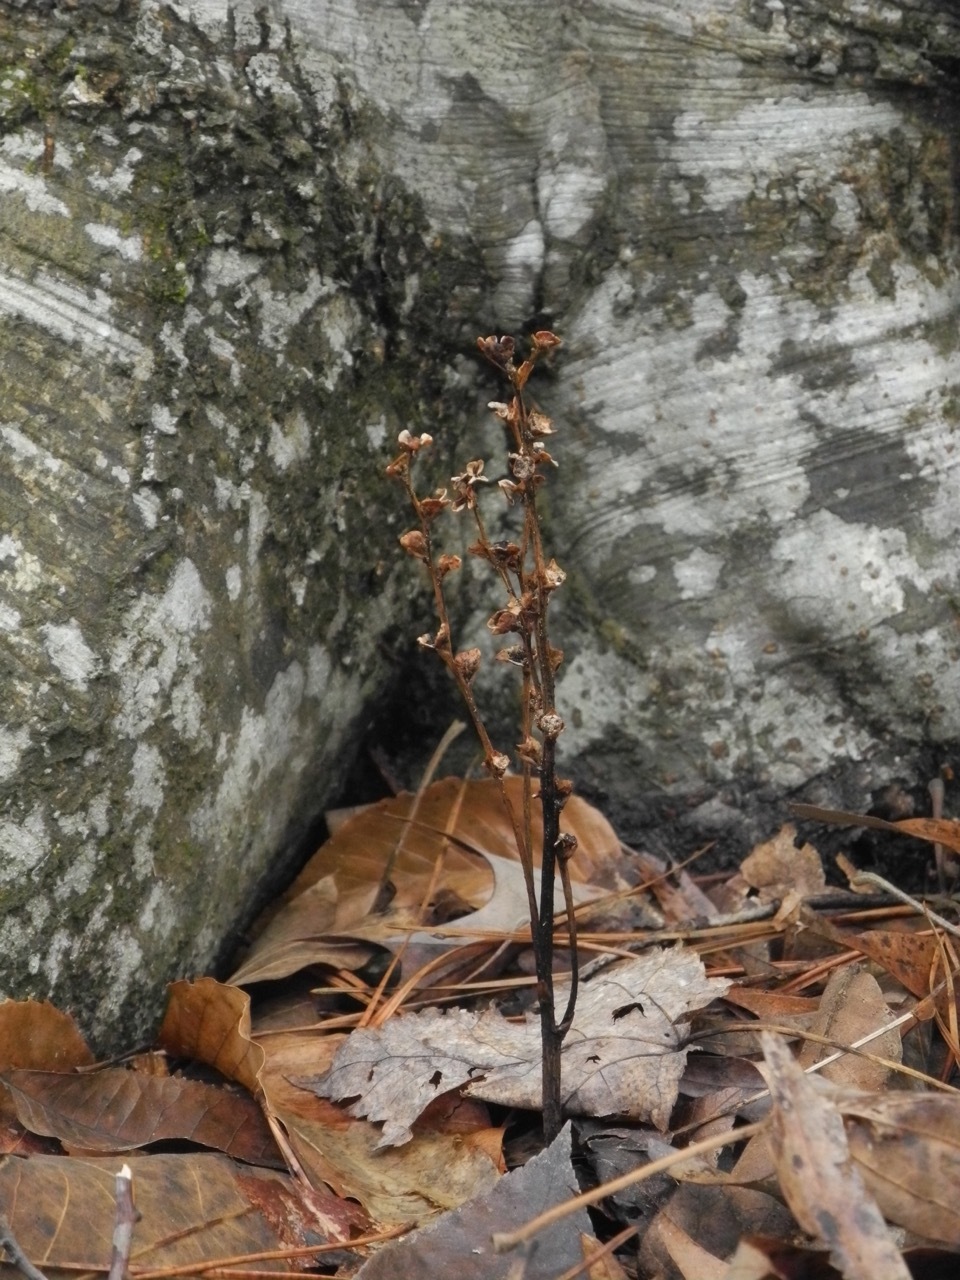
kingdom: Plantae
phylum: Tracheophyta
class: Magnoliopsida
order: Lamiales
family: Orobanchaceae
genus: Epifagus
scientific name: Epifagus virginiana
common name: Beechdrops
